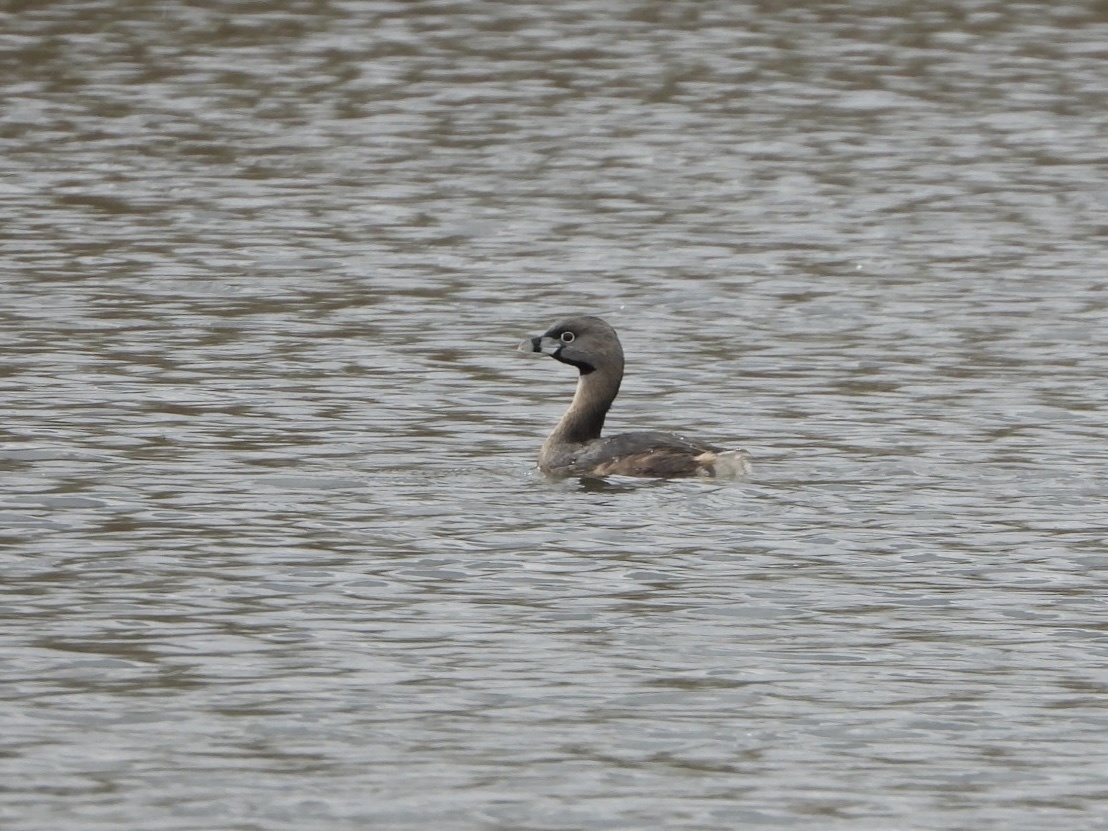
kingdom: Animalia
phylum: Chordata
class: Aves
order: Podicipediformes
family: Podicipedidae
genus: Podilymbus
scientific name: Podilymbus podiceps
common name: Pied-billed grebe
